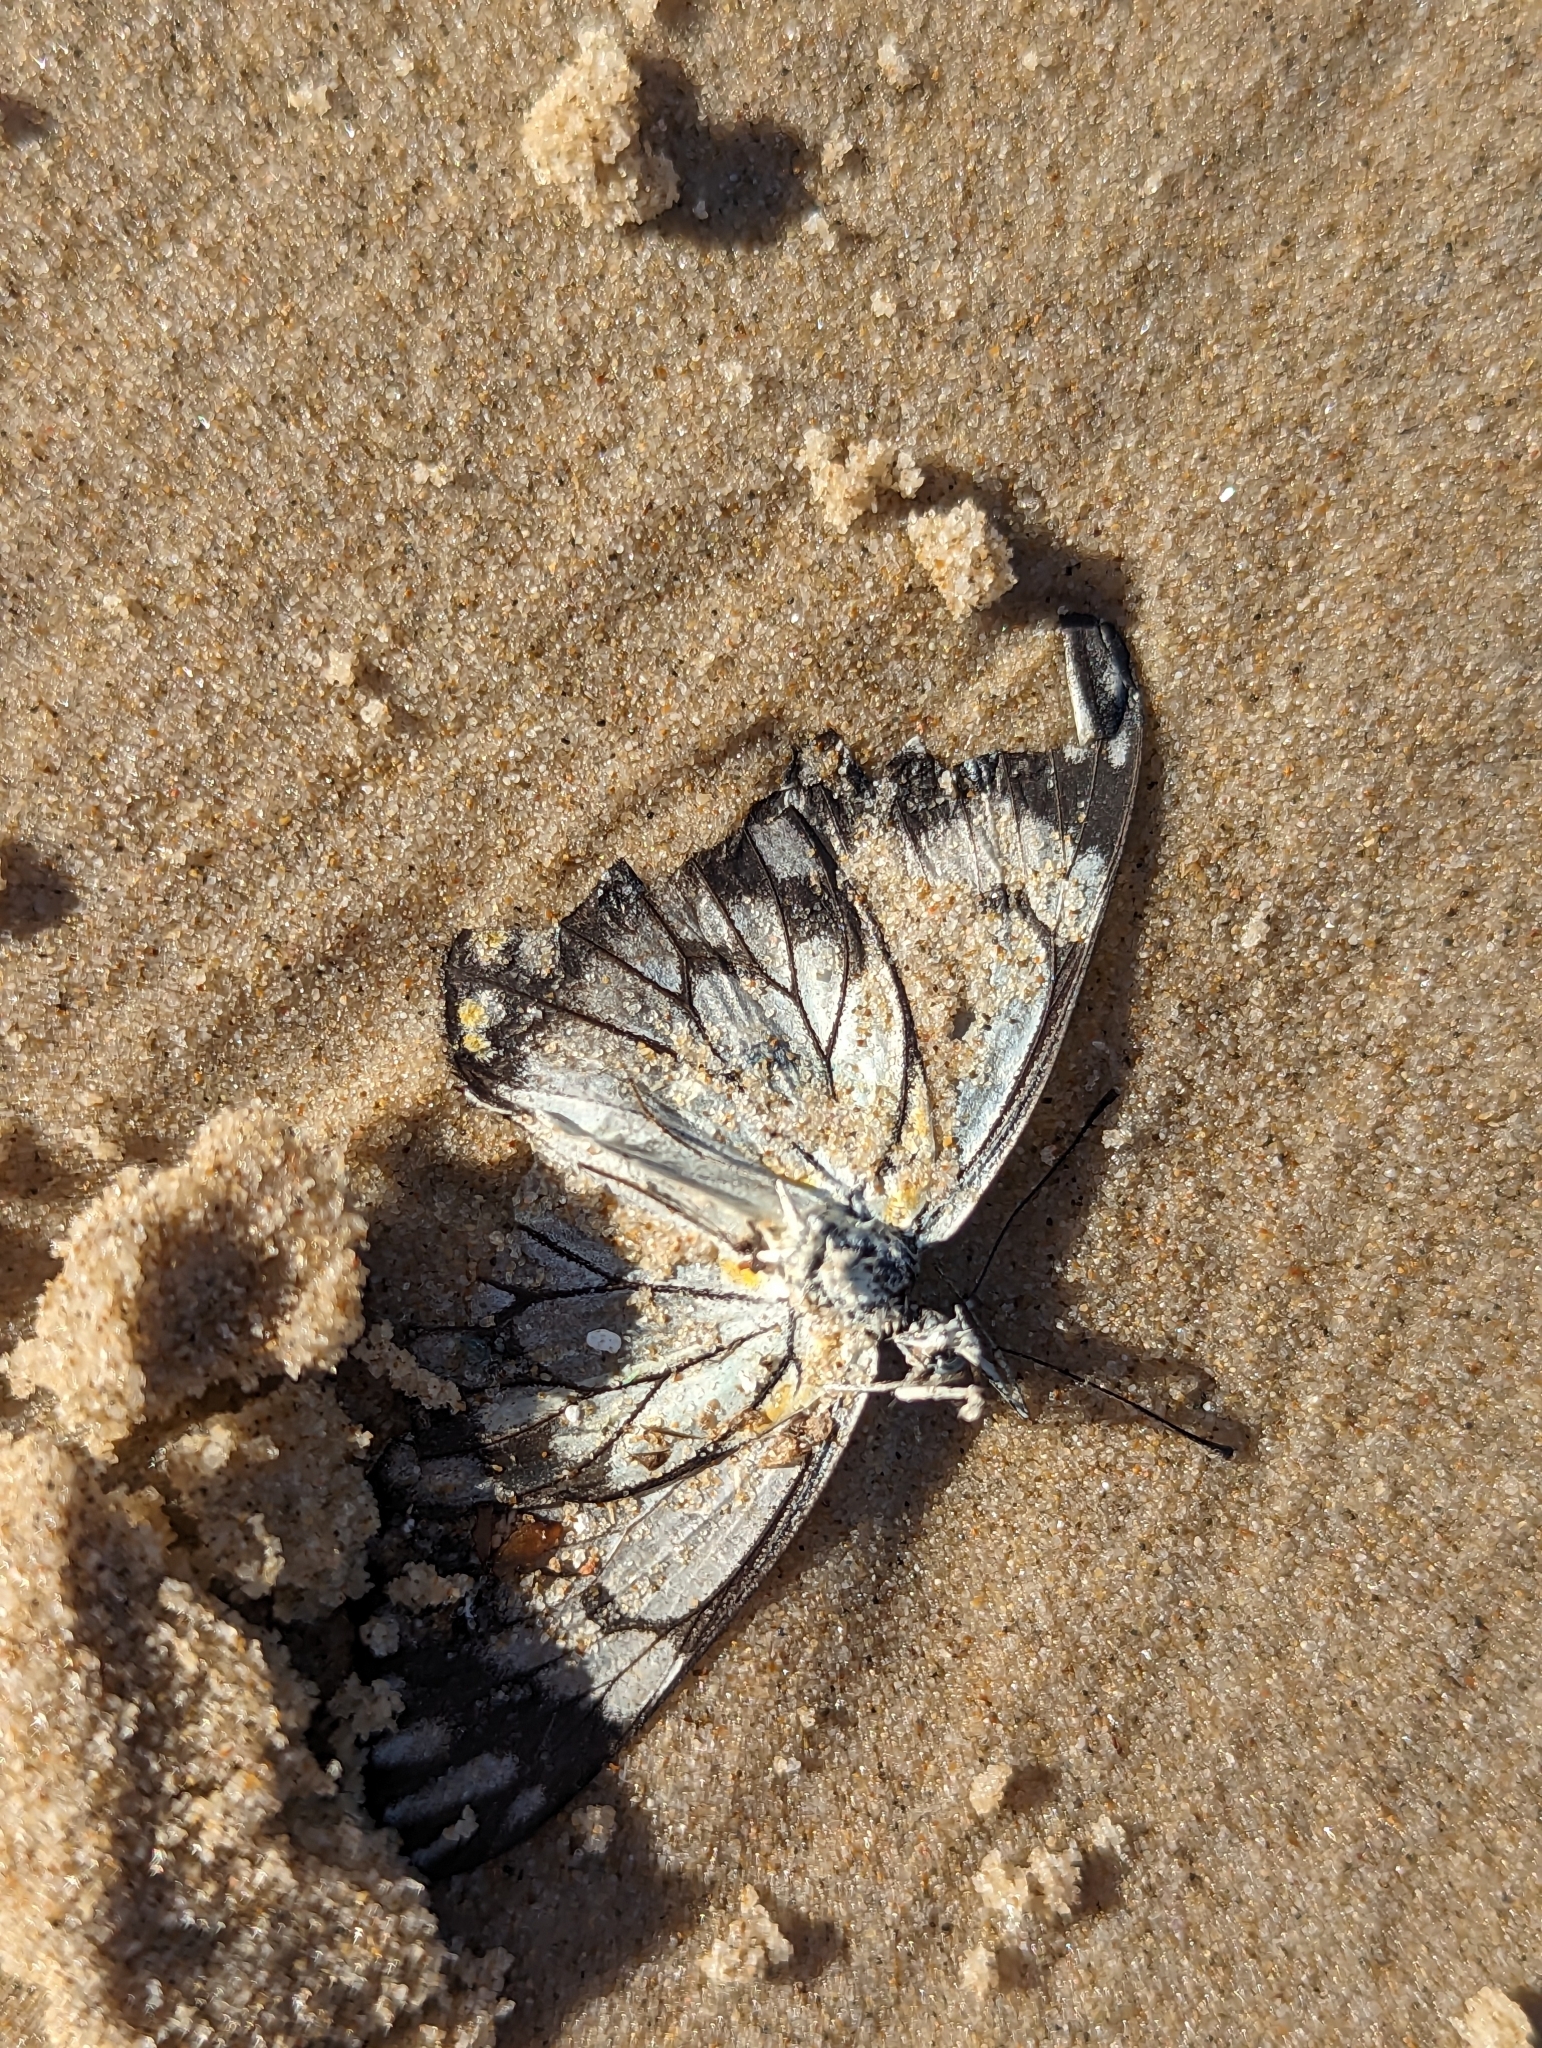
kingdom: Animalia
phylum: Arthropoda
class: Insecta
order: Lepidoptera
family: Pieridae
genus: Belenois
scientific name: Belenois java
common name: Caper white
